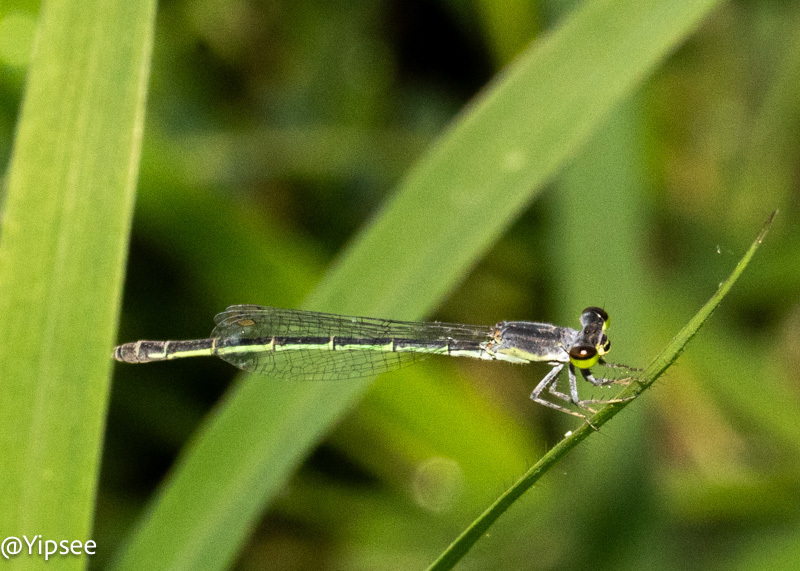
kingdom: Animalia
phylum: Arthropoda
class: Insecta
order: Odonata
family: Coenagrionidae
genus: Agriocnemis
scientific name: Agriocnemis minima
